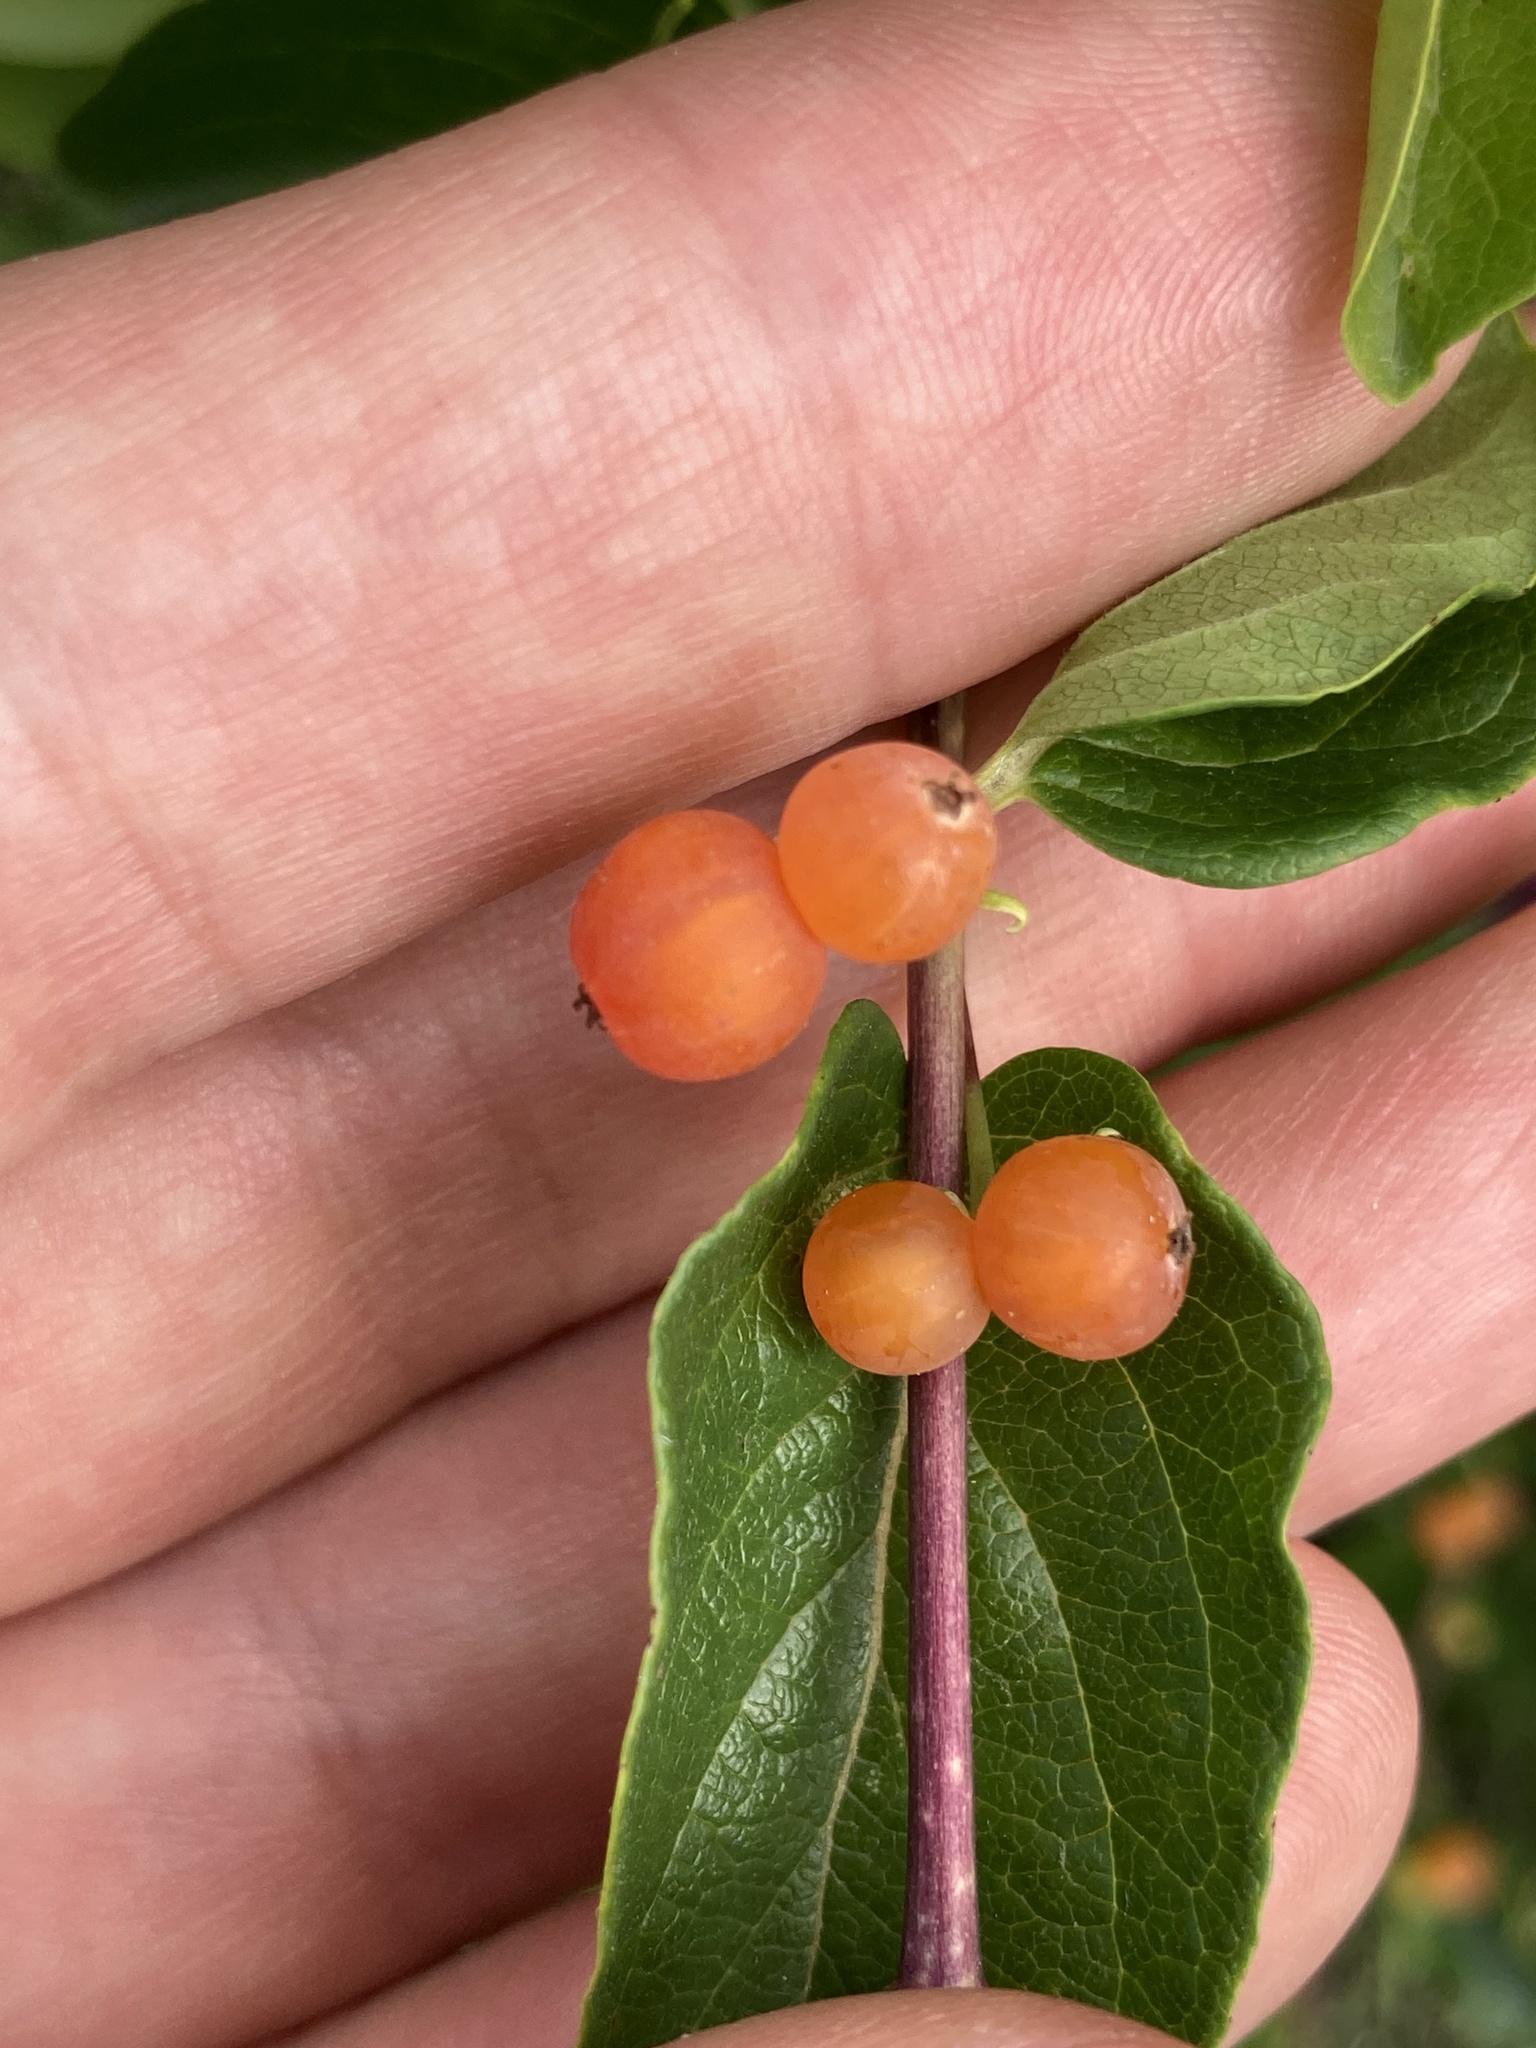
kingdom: Plantae
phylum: Tracheophyta
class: Magnoliopsida
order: Dipsacales
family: Caprifoliaceae
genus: Lonicera
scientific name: Lonicera tatarica
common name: Tatarian honeysuckle
